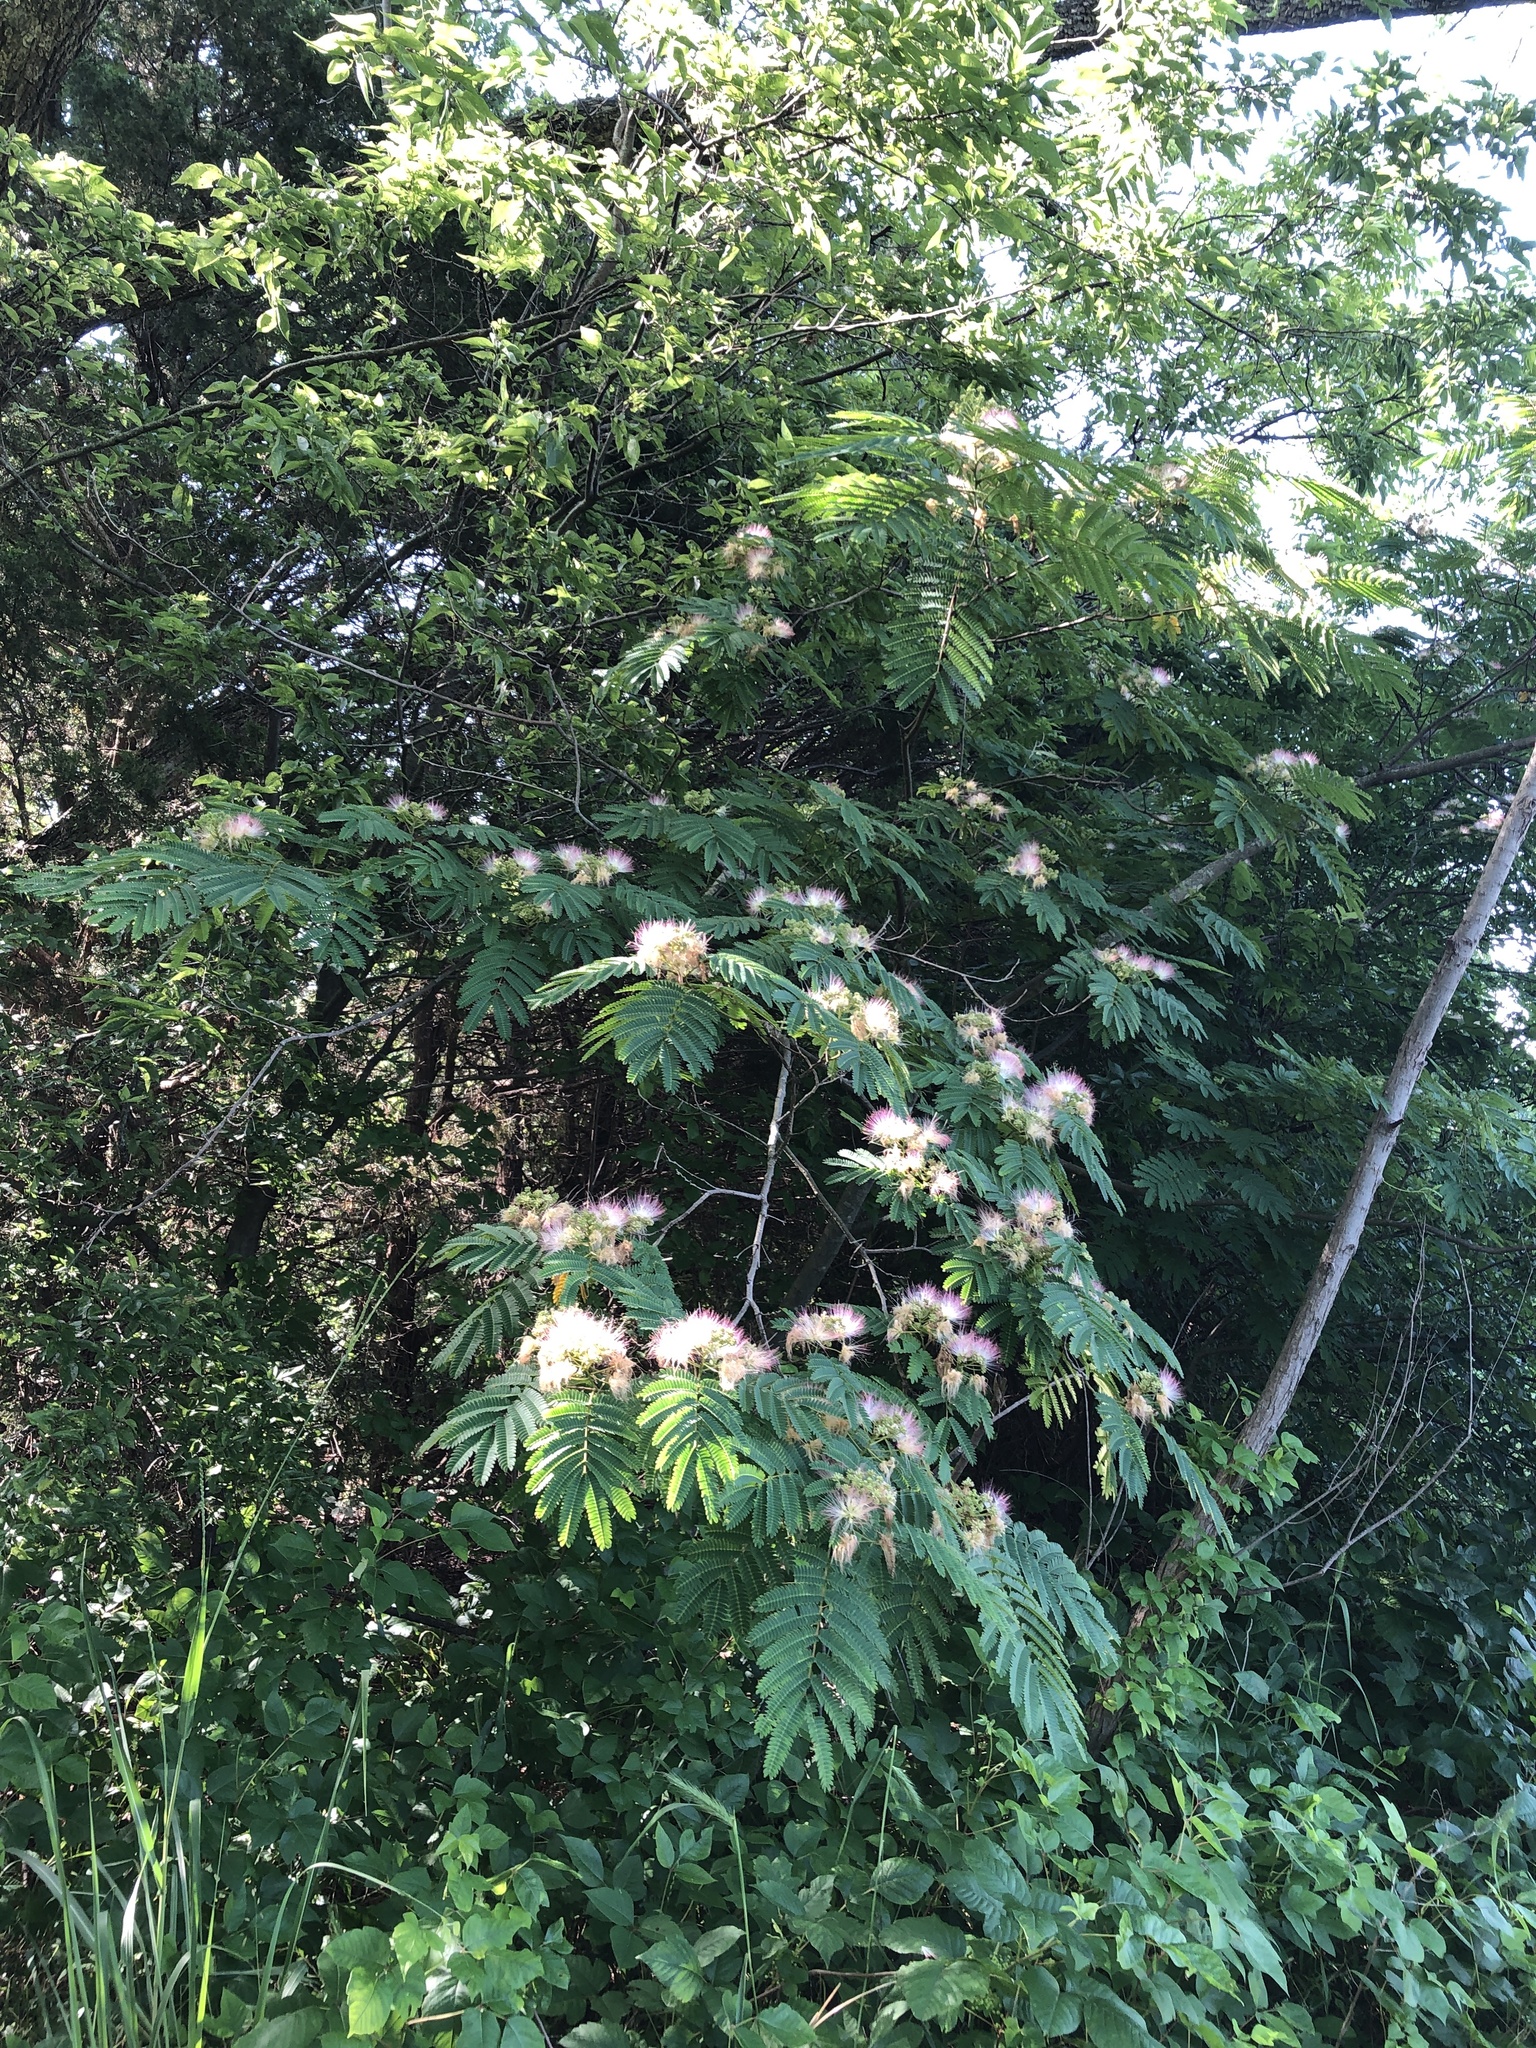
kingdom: Plantae
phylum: Tracheophyta
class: Magnoliopsida
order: Fabales
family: Fabaceae
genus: Albizia
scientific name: Albizia julibrissin
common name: Silktree
